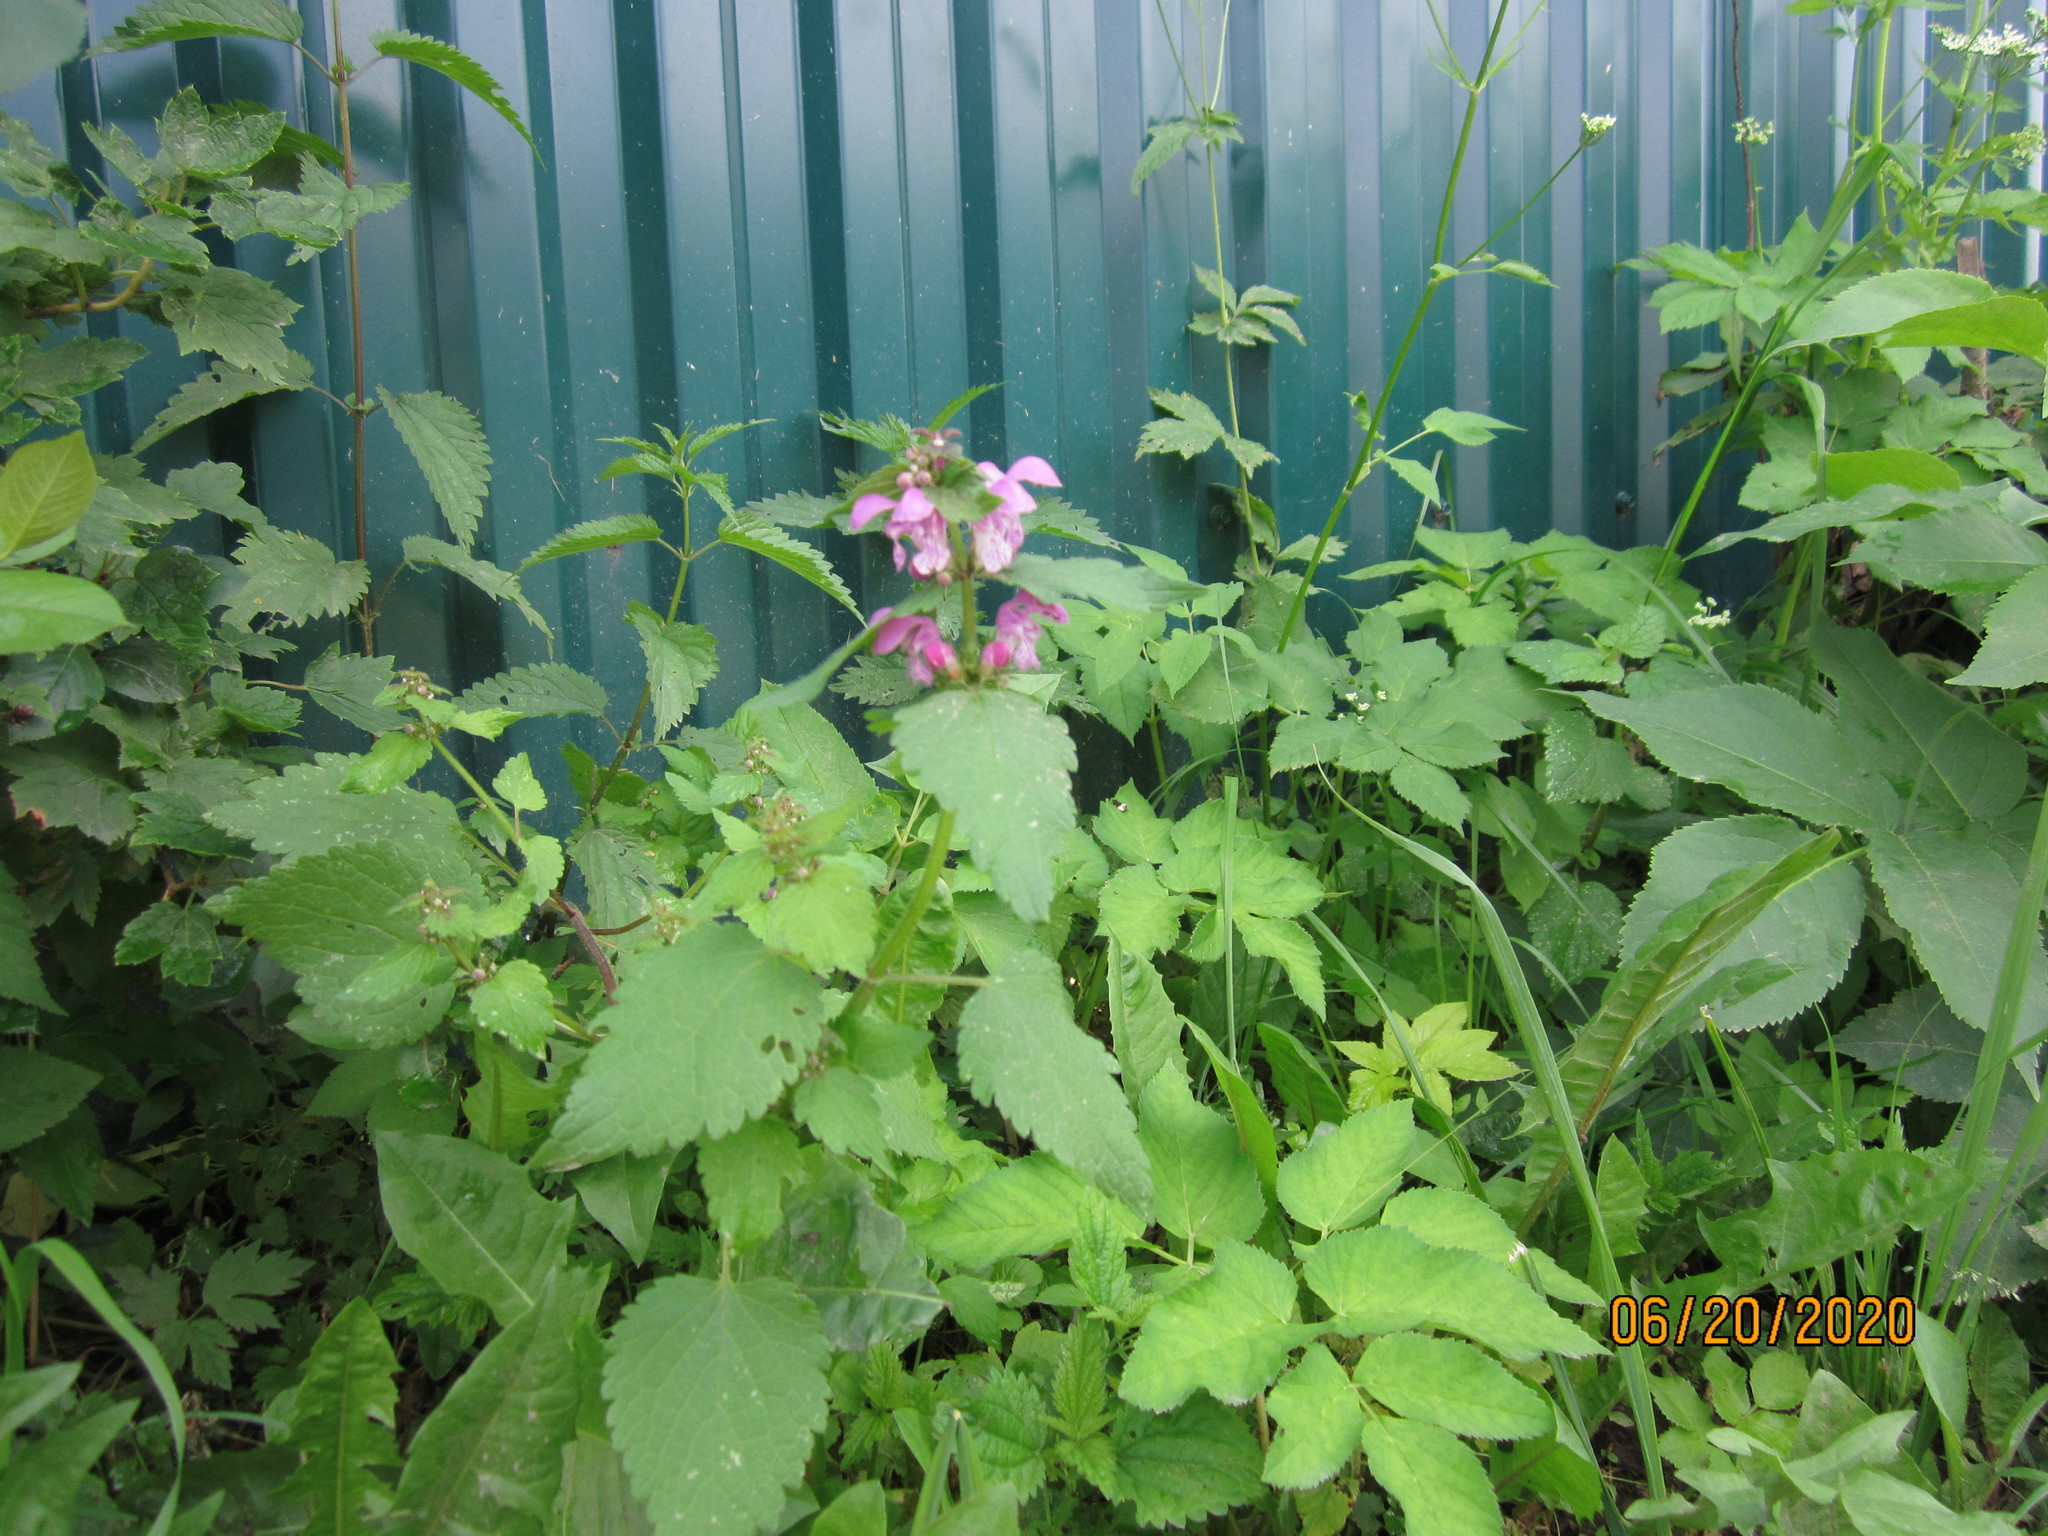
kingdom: Plantae
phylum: Tracheophyta
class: Magnoliopsida
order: Lamiales
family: Lamiaceae
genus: Lamium
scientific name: Lamium maculatum
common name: Spotted dead-nettle
